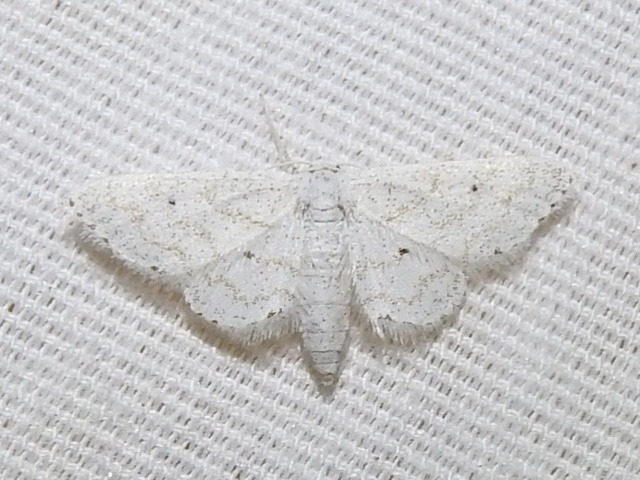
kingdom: Animalia
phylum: Arthropoda
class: Insecta
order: Lepidoptera
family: Geometridae
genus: Lobocleta
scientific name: Lobocleta peralbata
